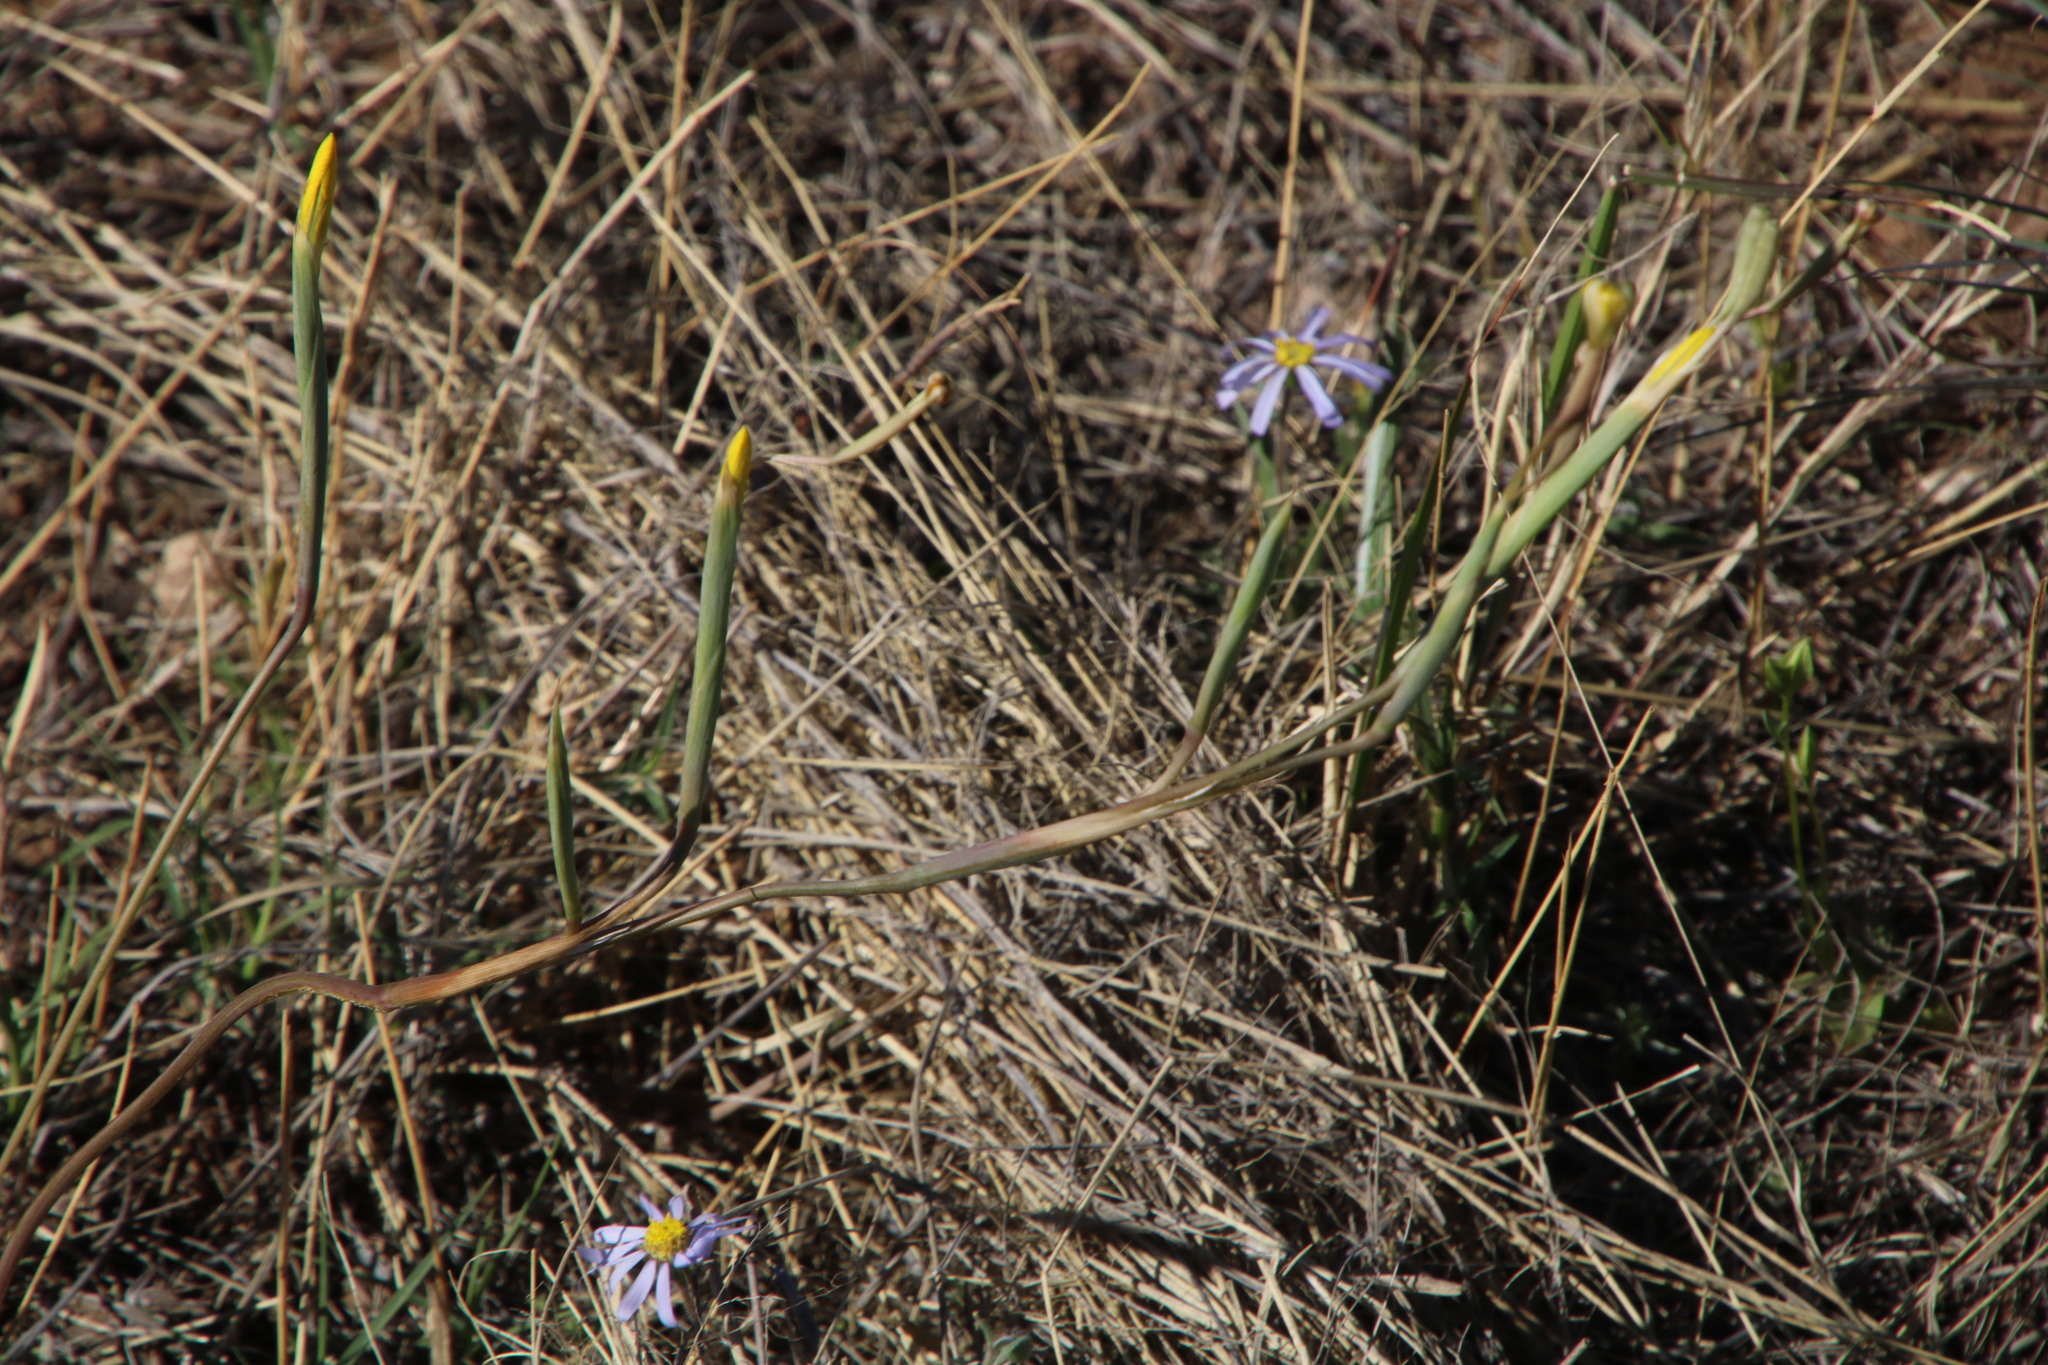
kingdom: Plantae
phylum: Tracheophyta
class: Liliopsida
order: Asparagales
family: Iridaceae
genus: Moraea
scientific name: Moraea pallida
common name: Yellow tulp
